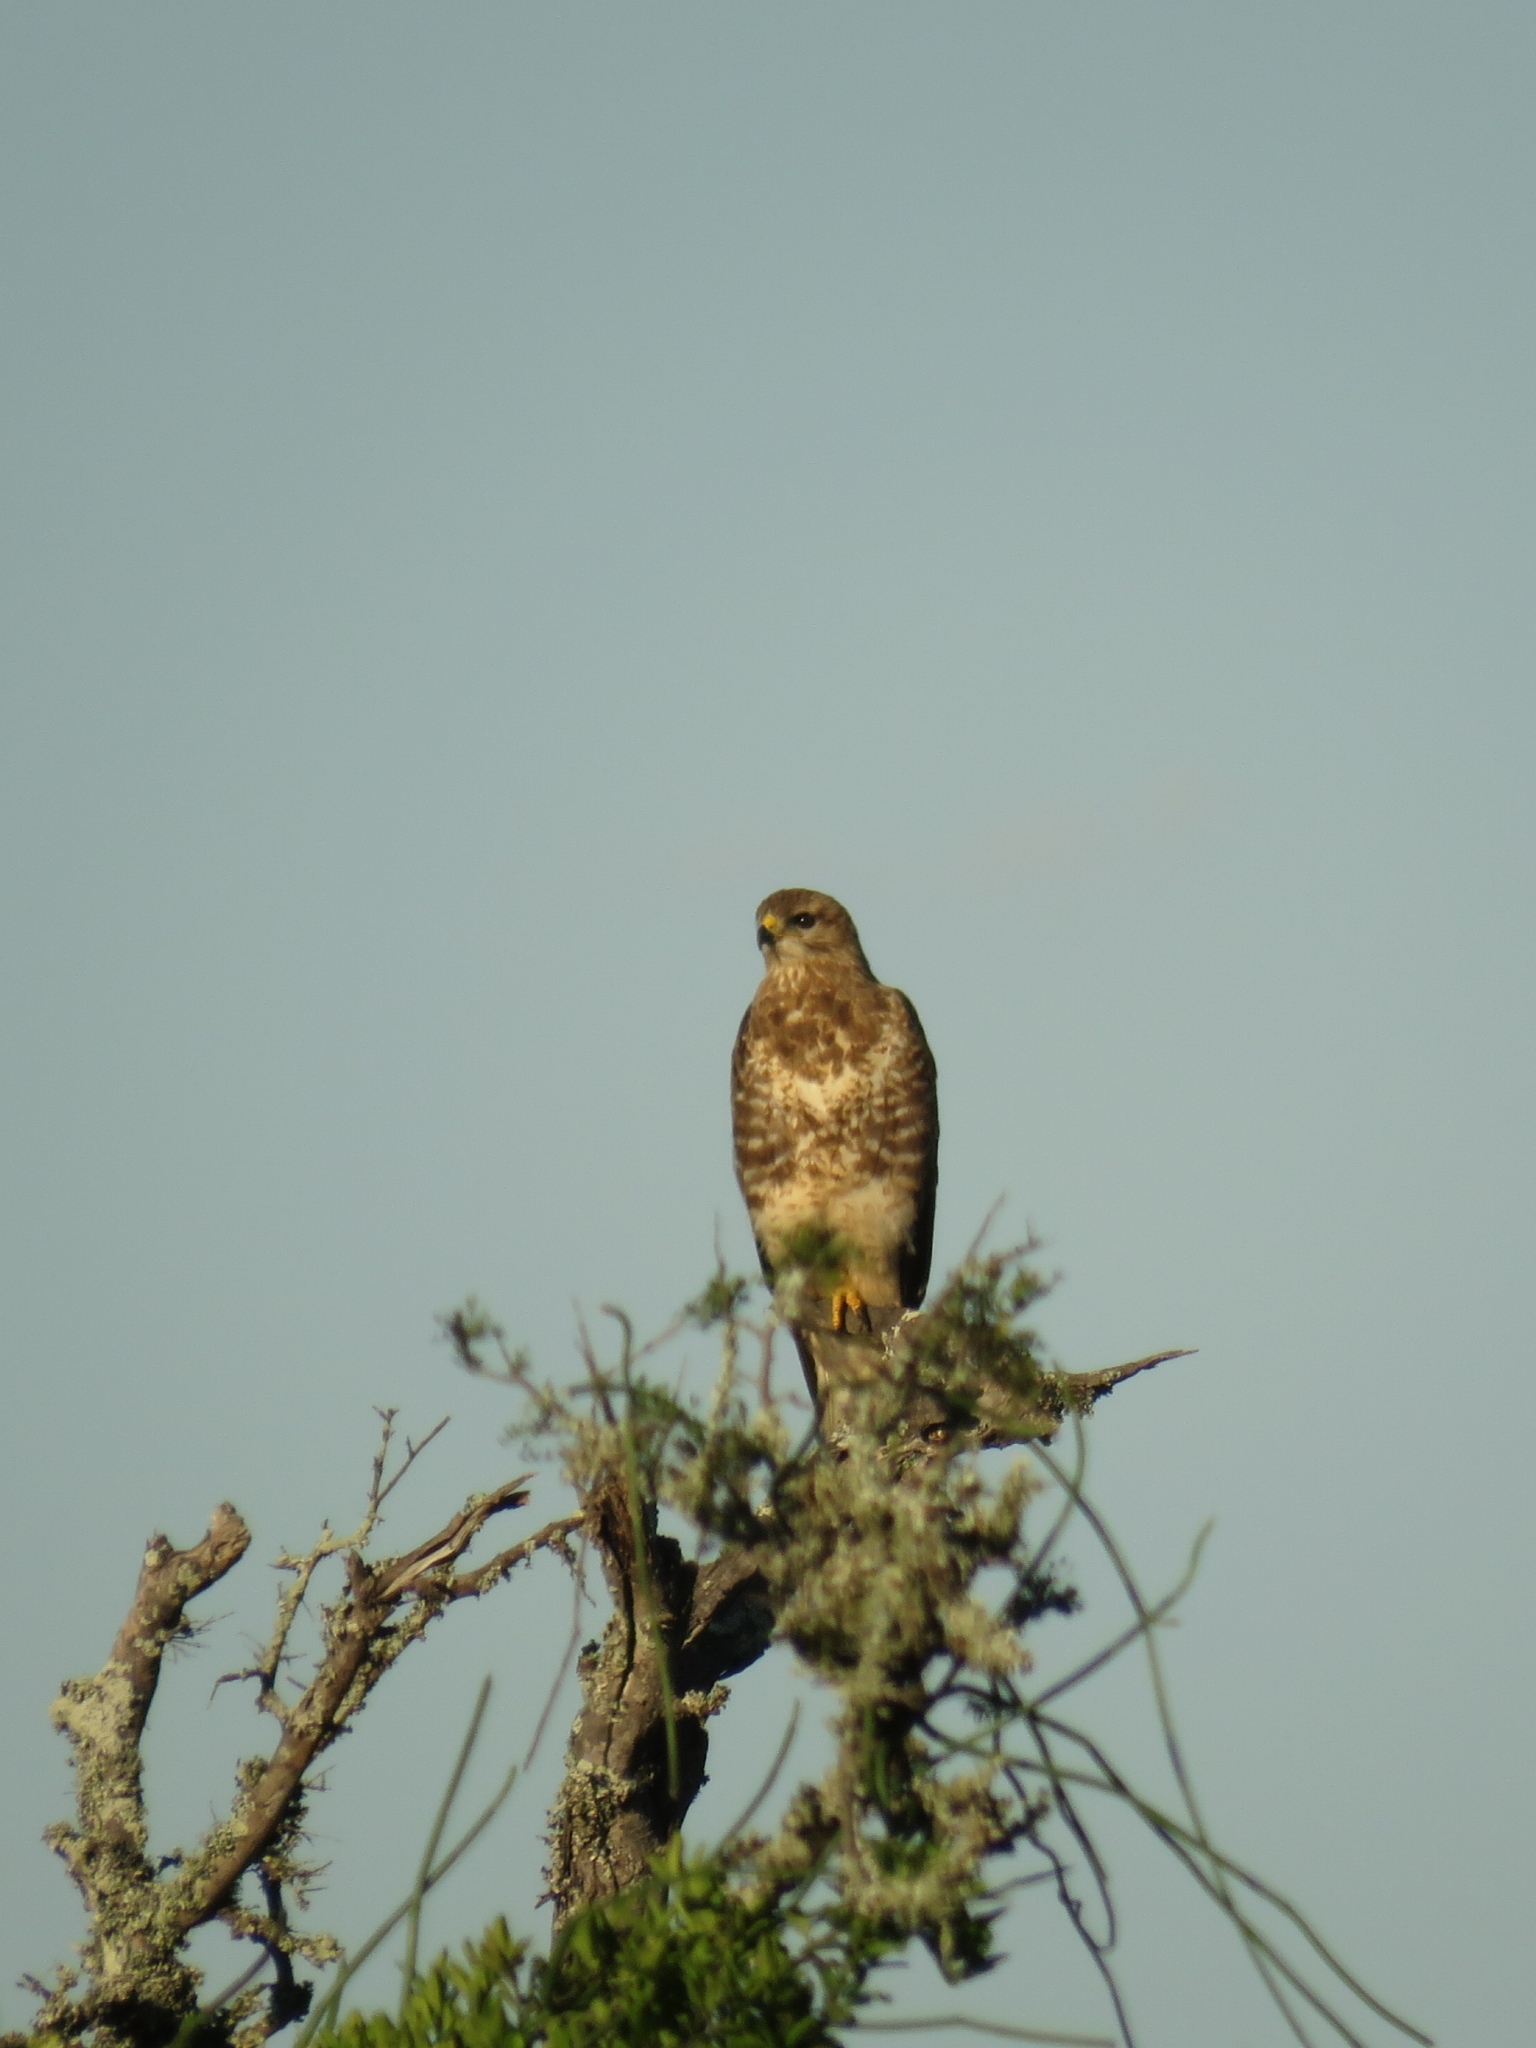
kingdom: Animalia
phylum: Chordata
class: Aves
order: Accipitriformes
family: Accipitridae
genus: Buteo
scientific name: Buteo trizonatus
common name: Forest buzzard
